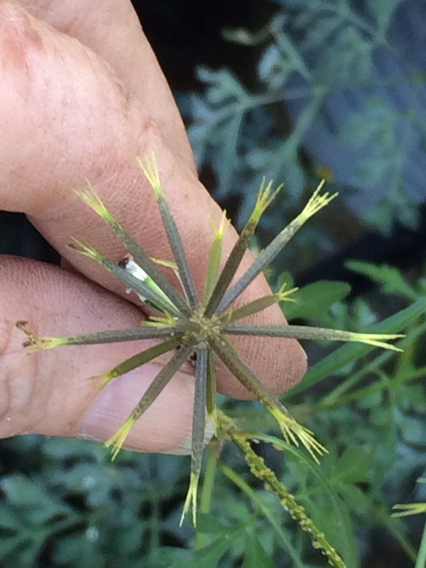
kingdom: Plantae
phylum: Tracheophyta
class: Magnoliopsida
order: Asterales
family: Asteraceae
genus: Bidens
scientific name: Bidens bipinnata
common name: Spanish-needles
